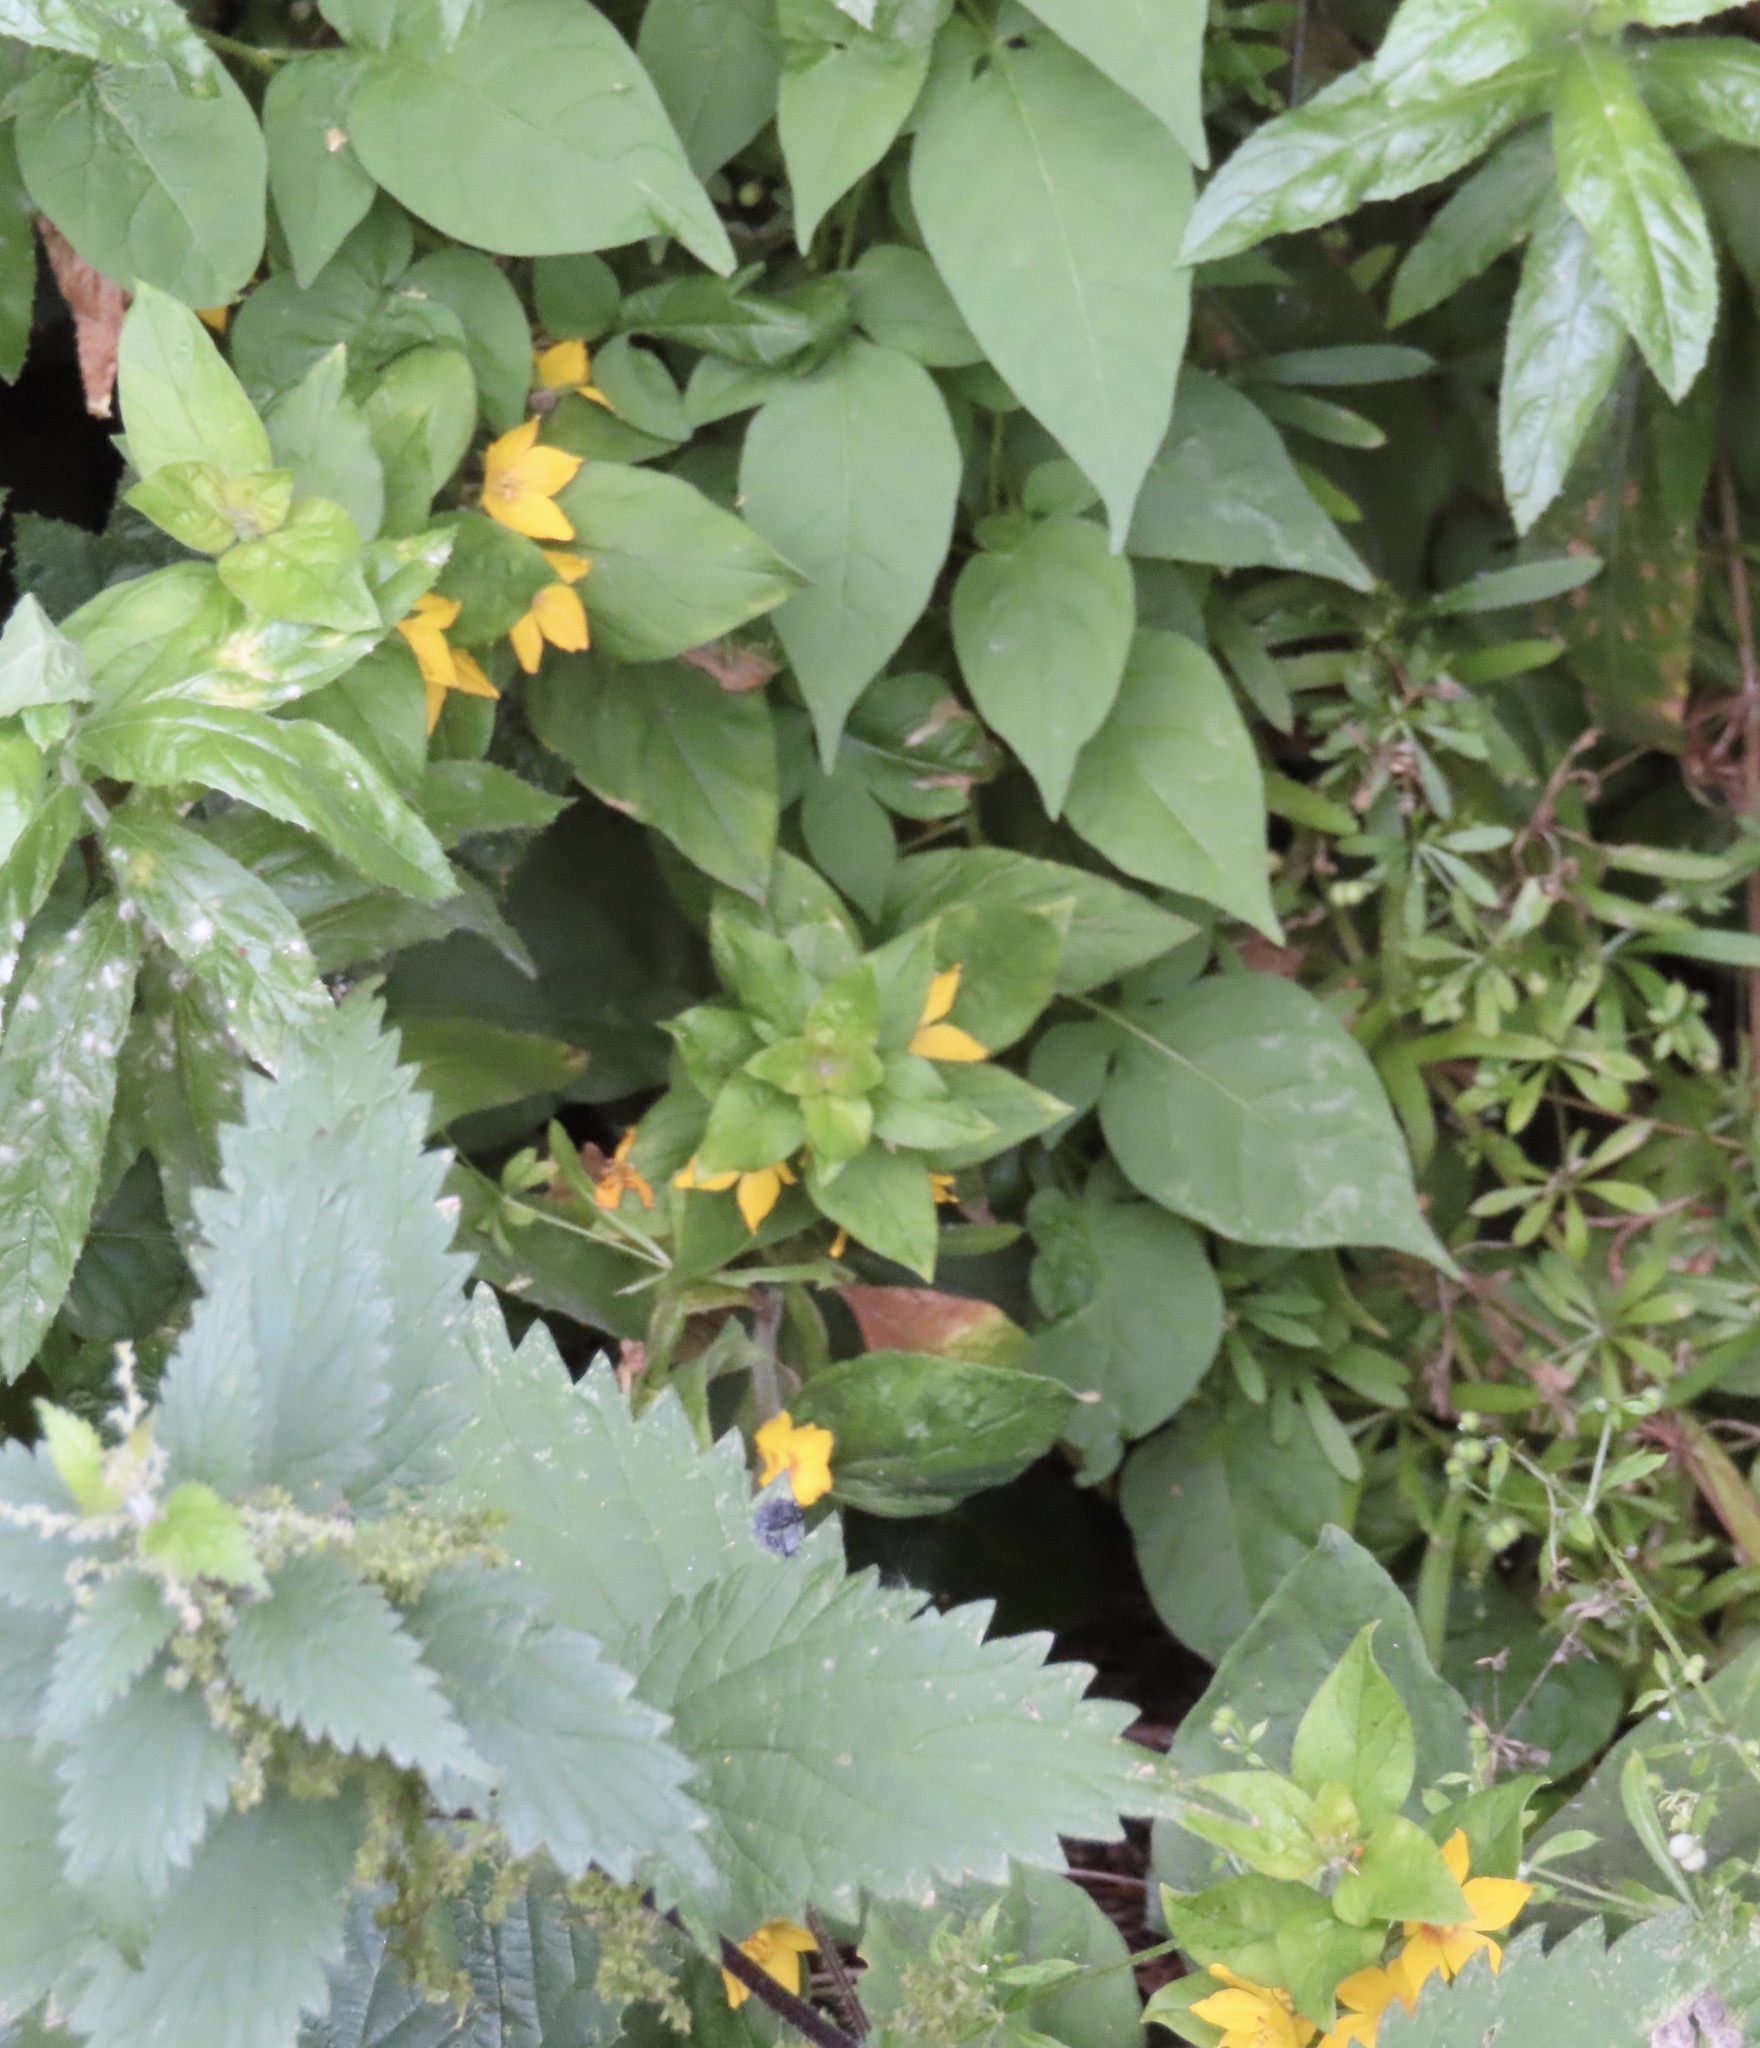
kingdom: Plantae
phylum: Tracheophyta
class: Magnoliopsida
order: Ericales
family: Primulaceae
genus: Lysimachia
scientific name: Lysimachia punctata
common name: Dotted loosestrife
